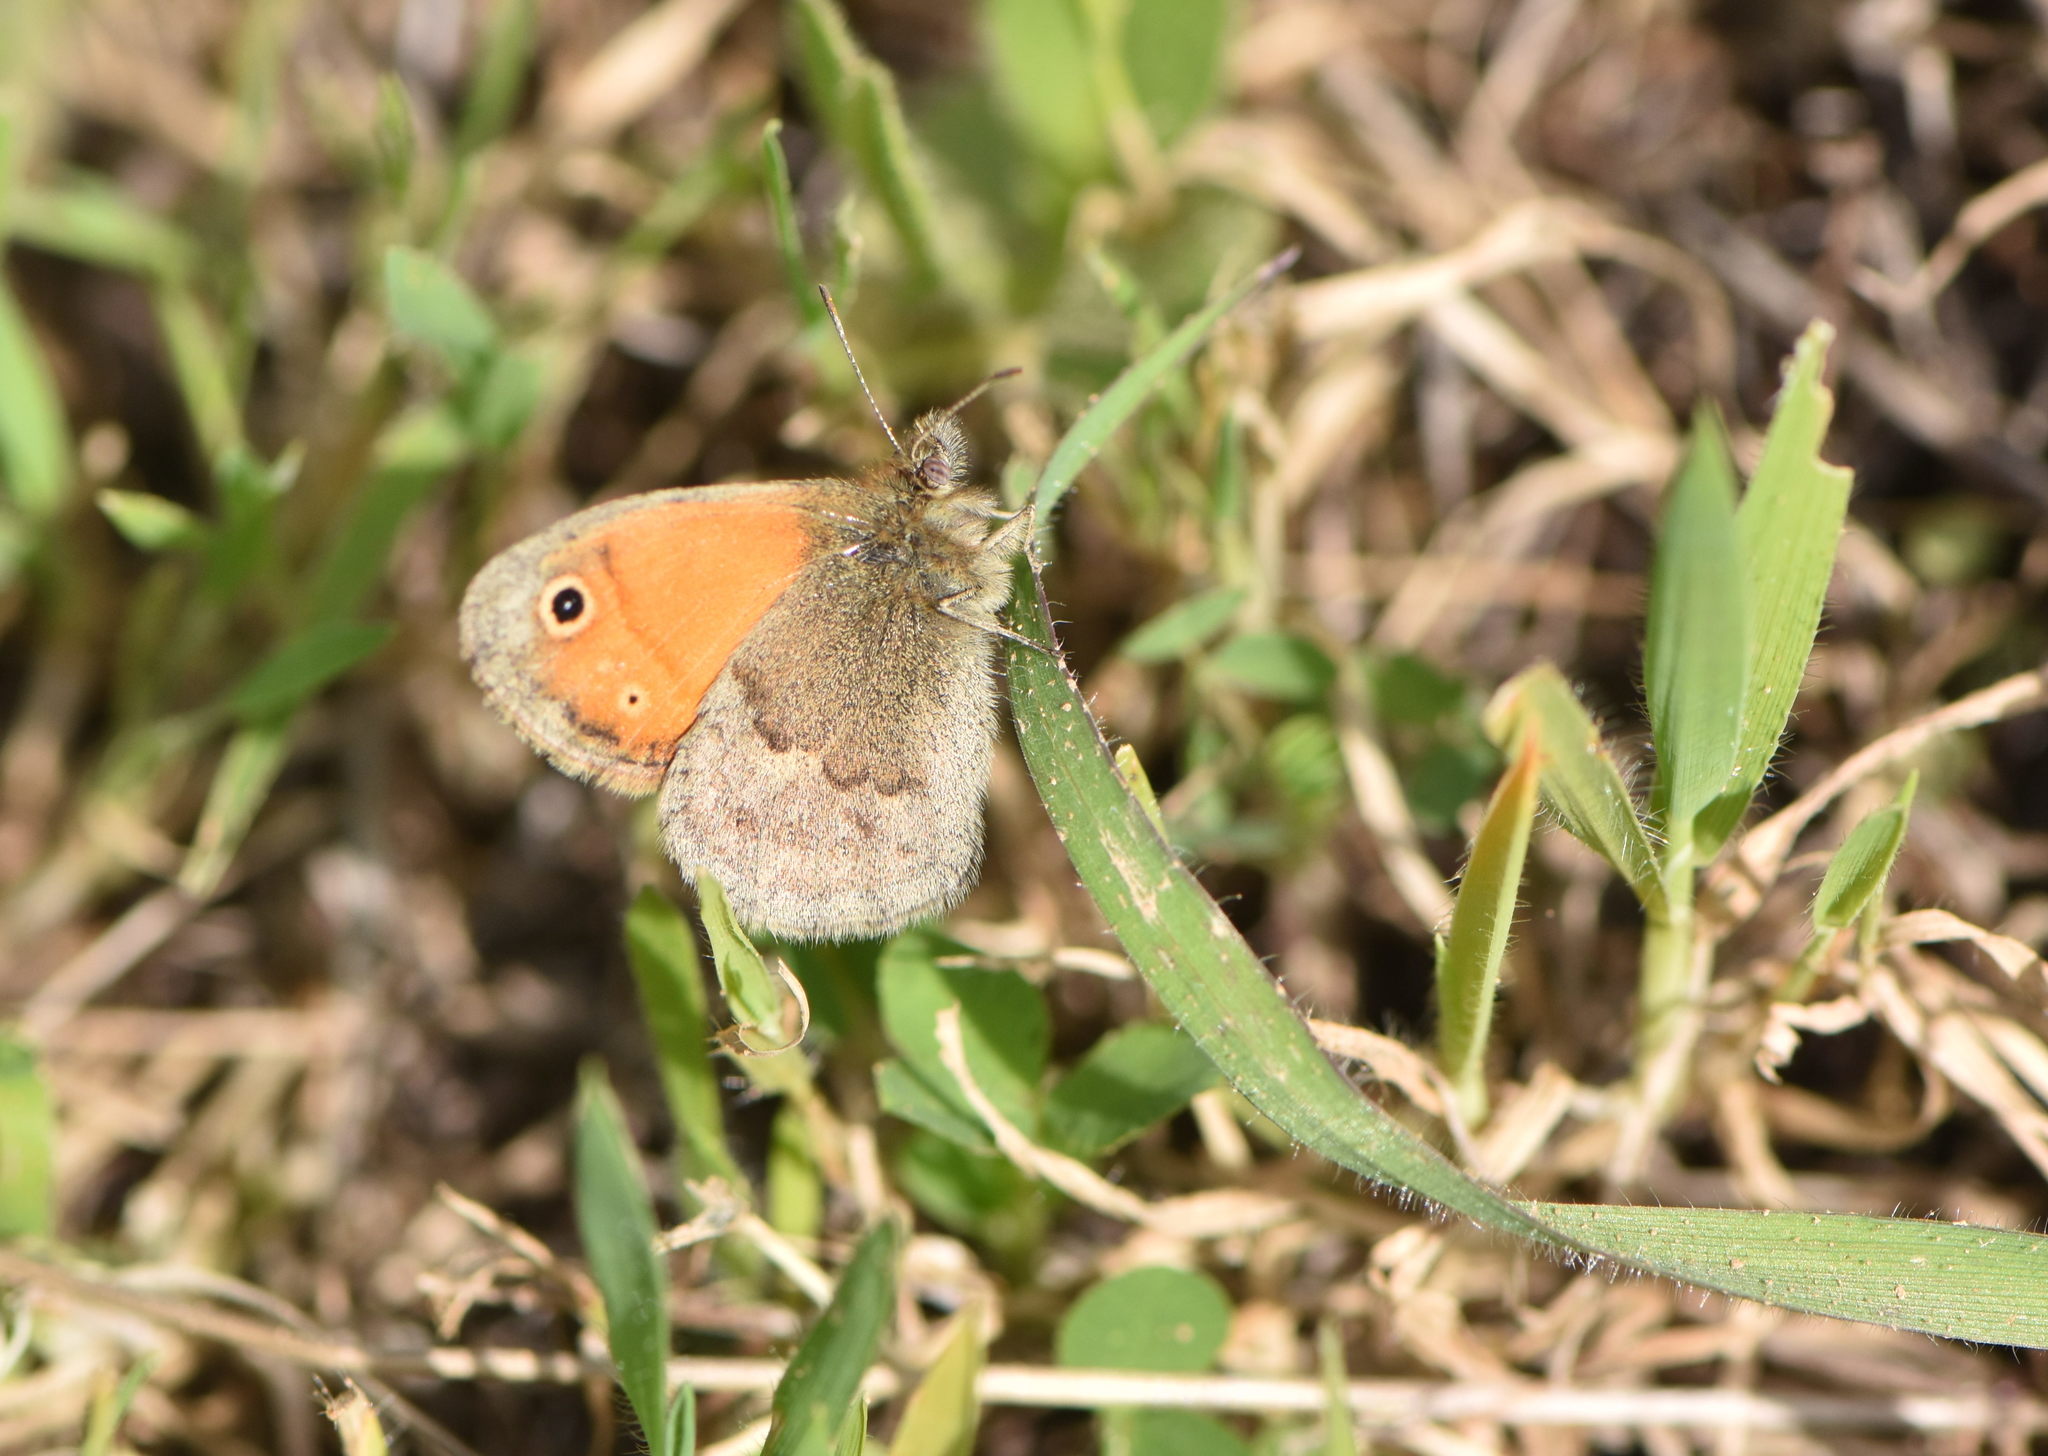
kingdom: Animalia
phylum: Arthropoda
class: Insecta
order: Lepidoptera
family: Nymphalidae
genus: Coenonympha
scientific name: Coenonympha pamphilus
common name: Small heath
